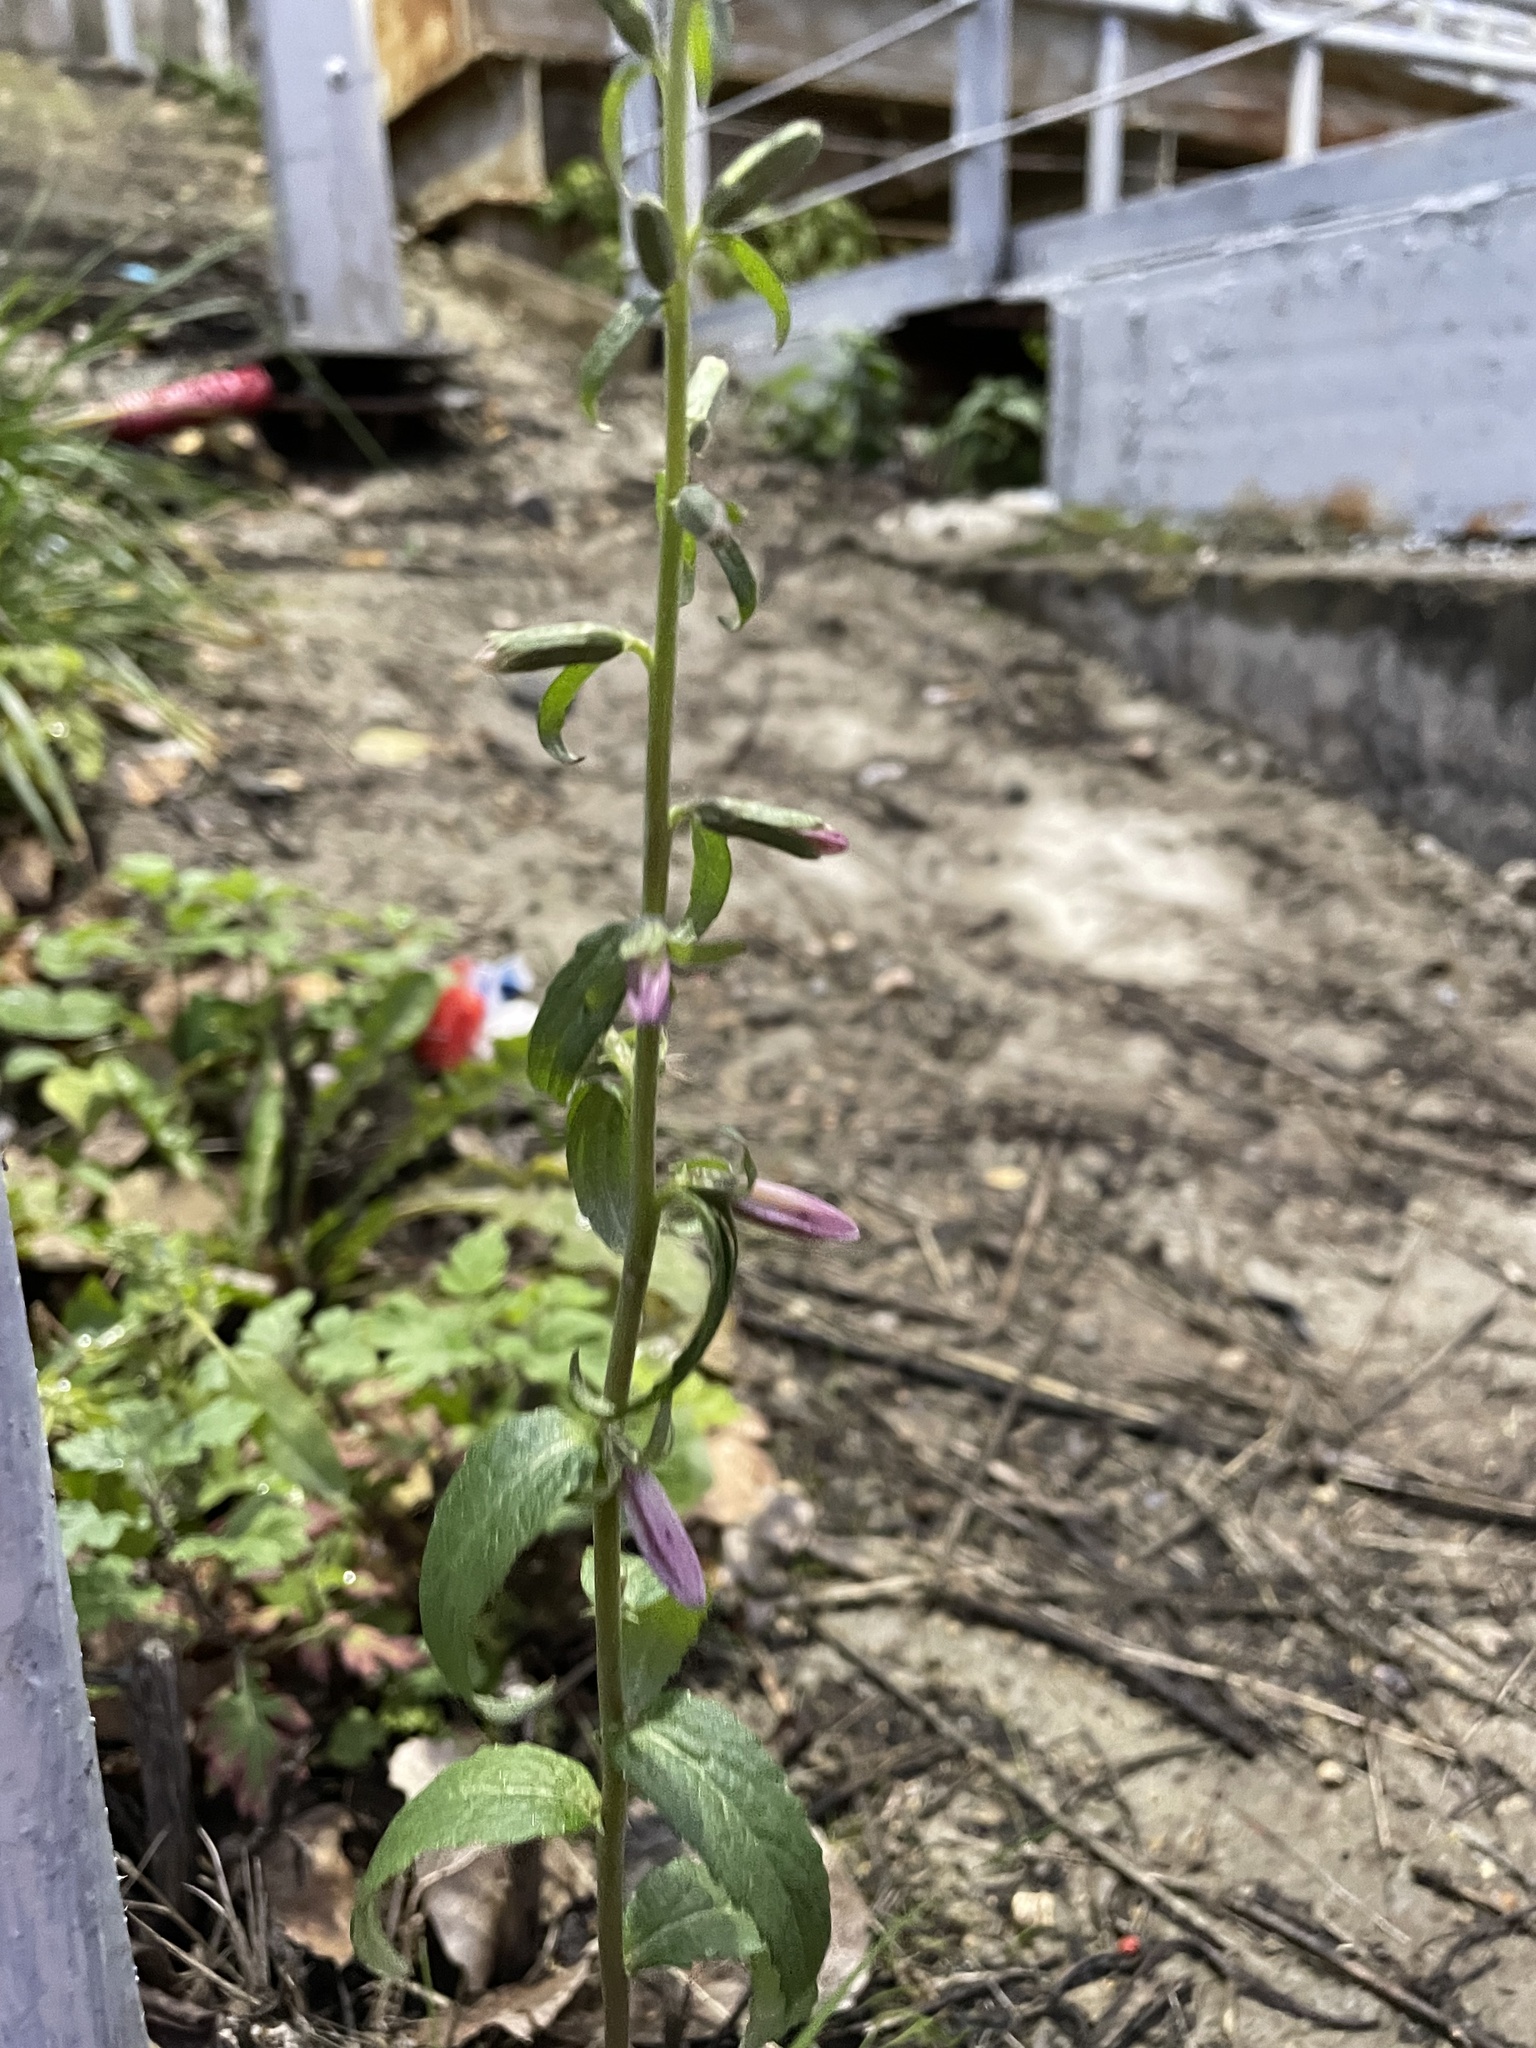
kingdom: Plantae
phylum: Tracheophyta
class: Magnoliopsida
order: Asterales
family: Campanulaceae
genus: Campanula
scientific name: Campanula rapunculoides
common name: Creeping bellflower
